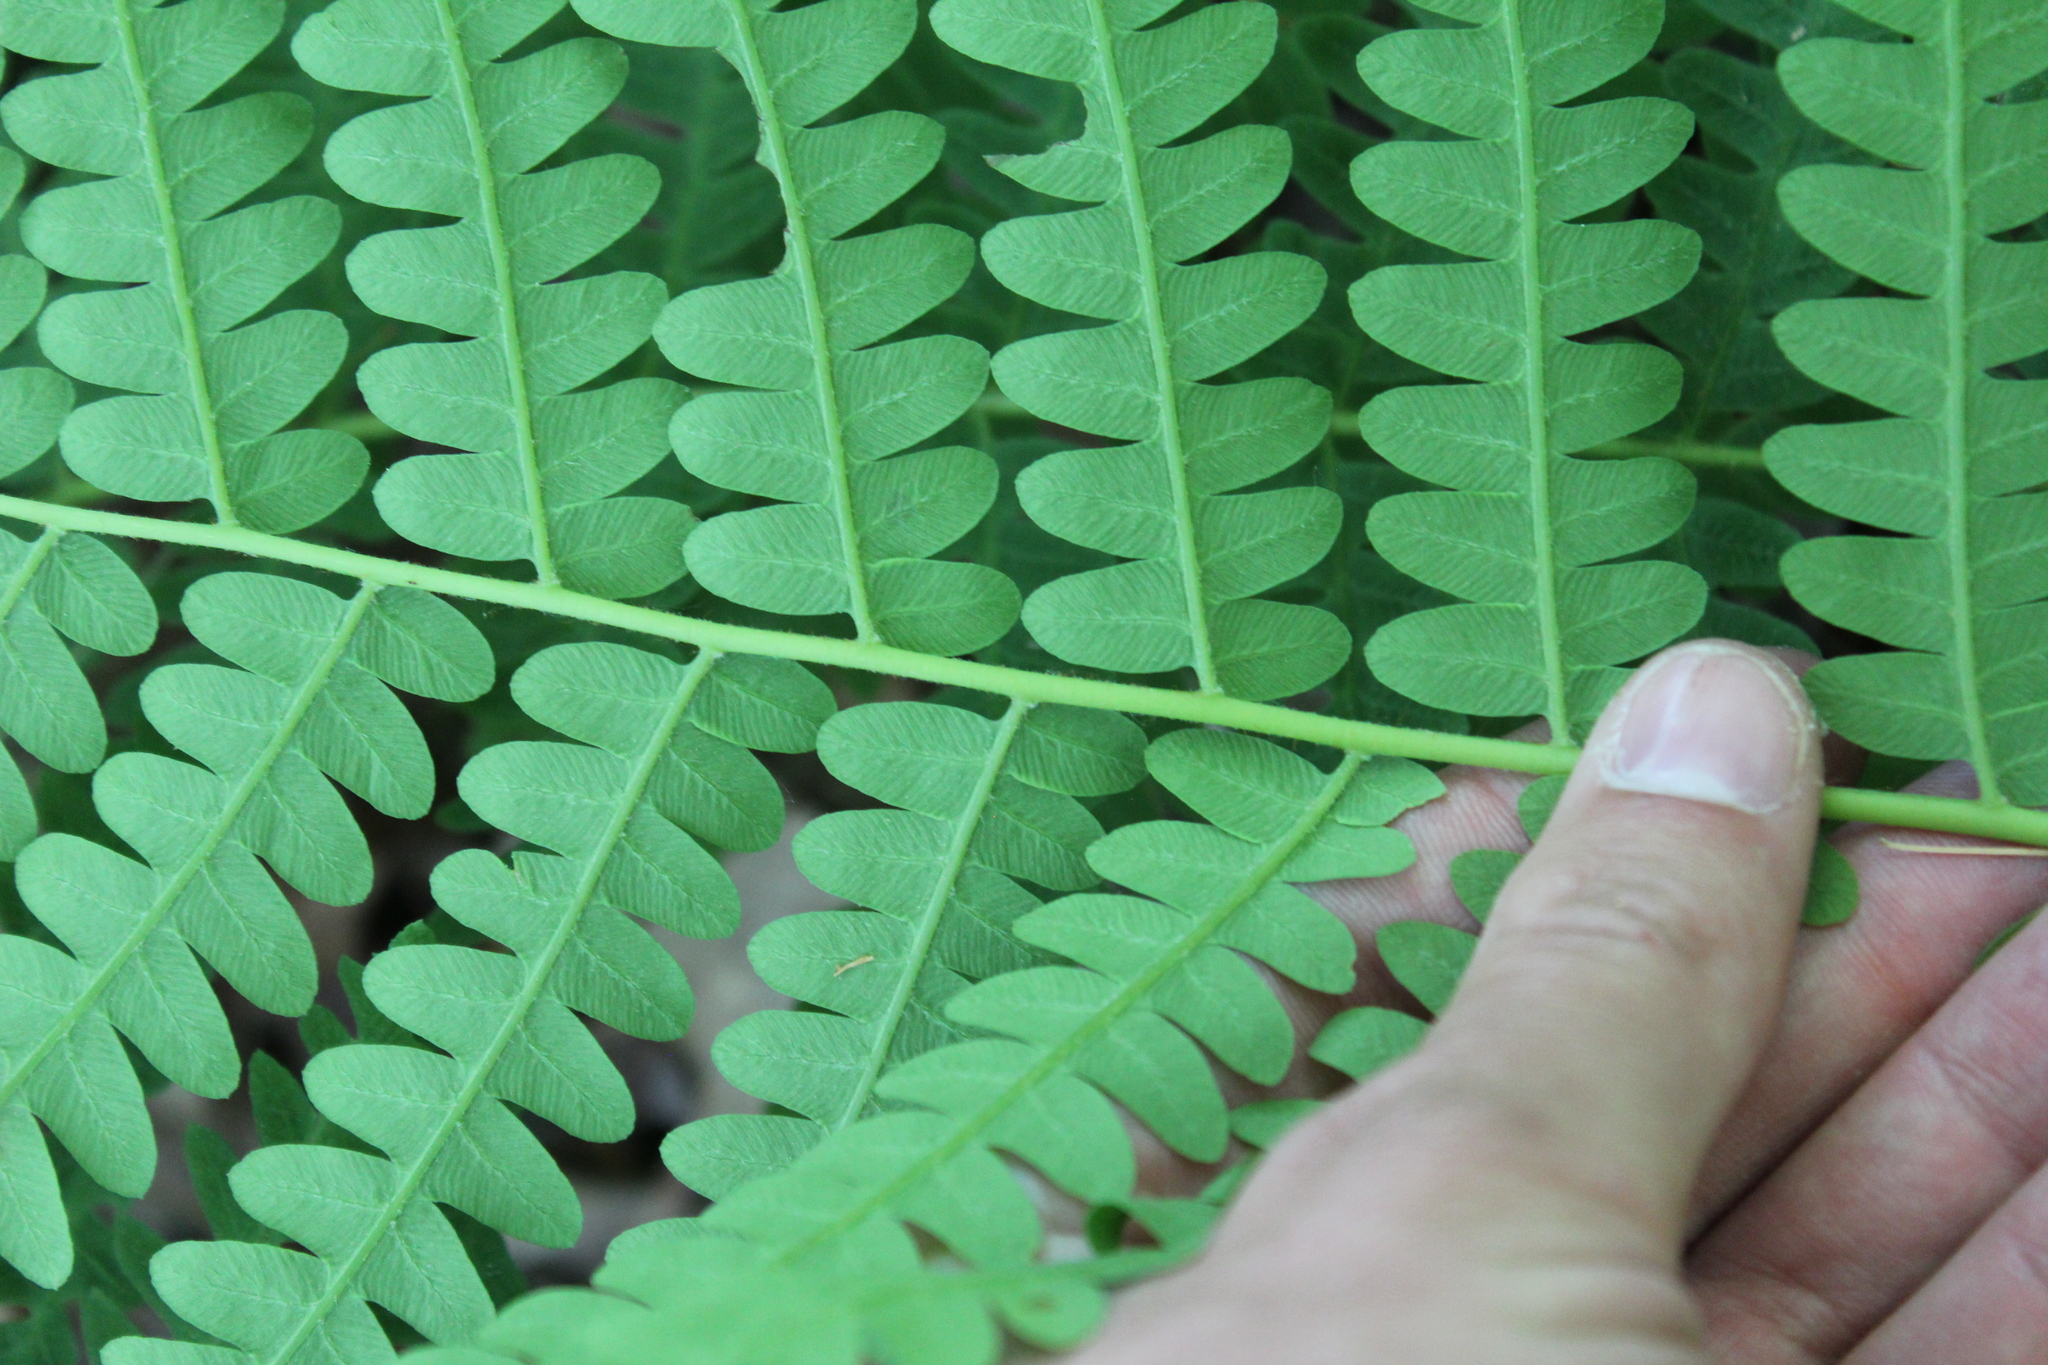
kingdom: Plantae
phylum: Tracheophyta
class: Polypodiopsida
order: Osmundales
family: Osmundaceae
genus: Claytosmunda
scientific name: Claytosmunda claytoniana
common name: Clayton's fern
